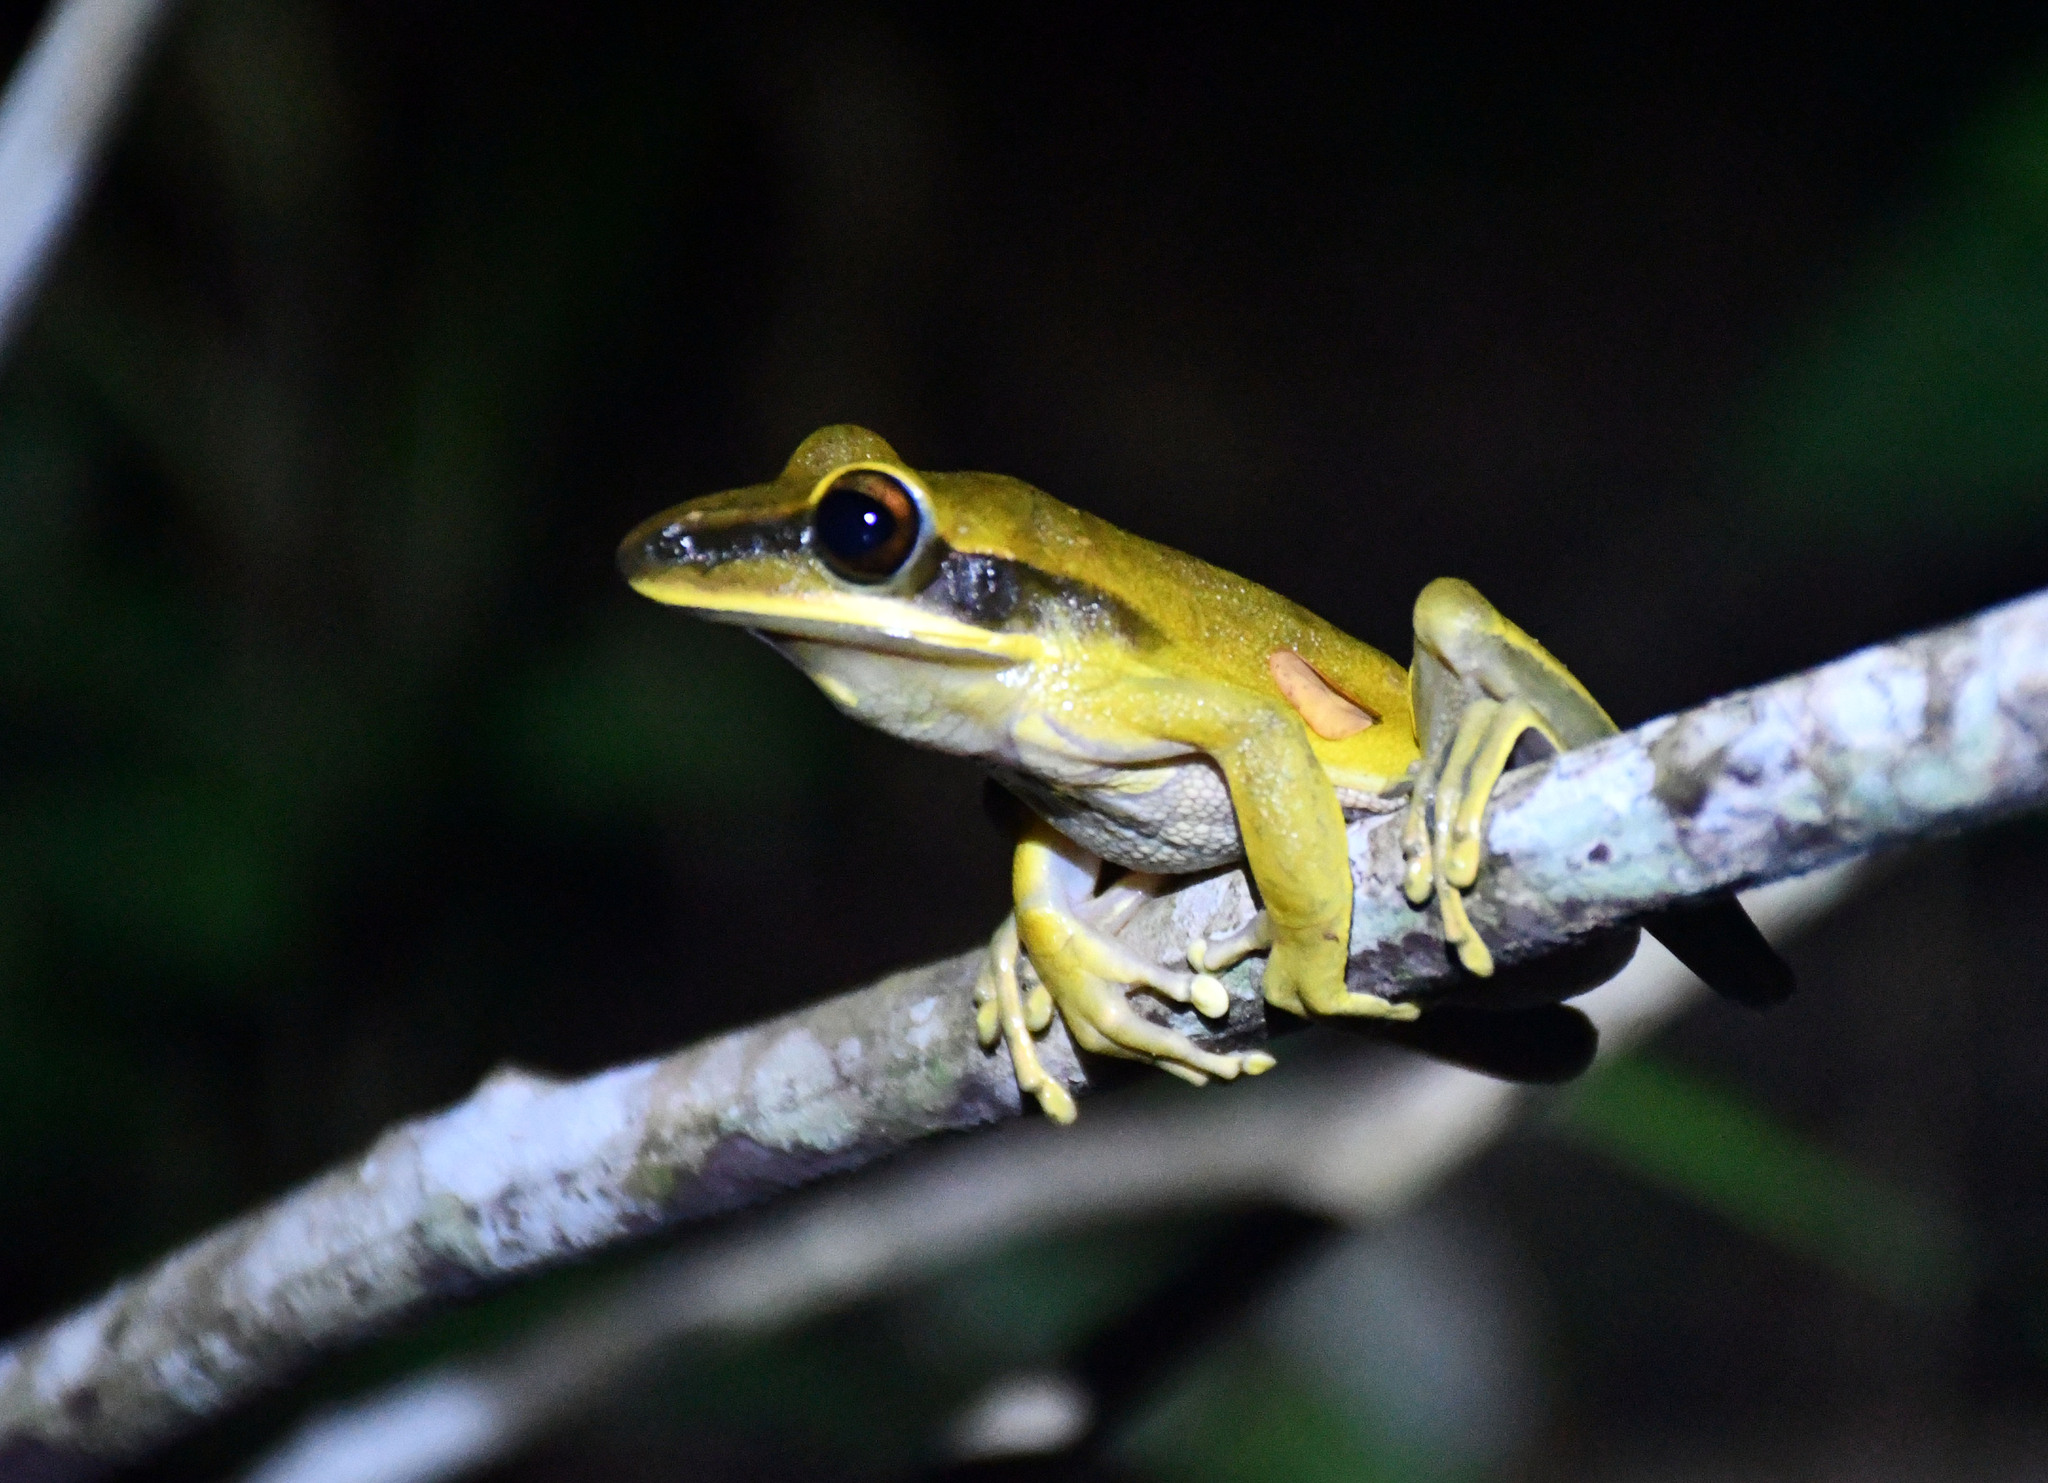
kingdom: Animalia
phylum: Chordata
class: Amphibia
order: Anura
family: Hylidae
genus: Boana
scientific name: Boana lanciformis
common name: Rana lanceolada commún
